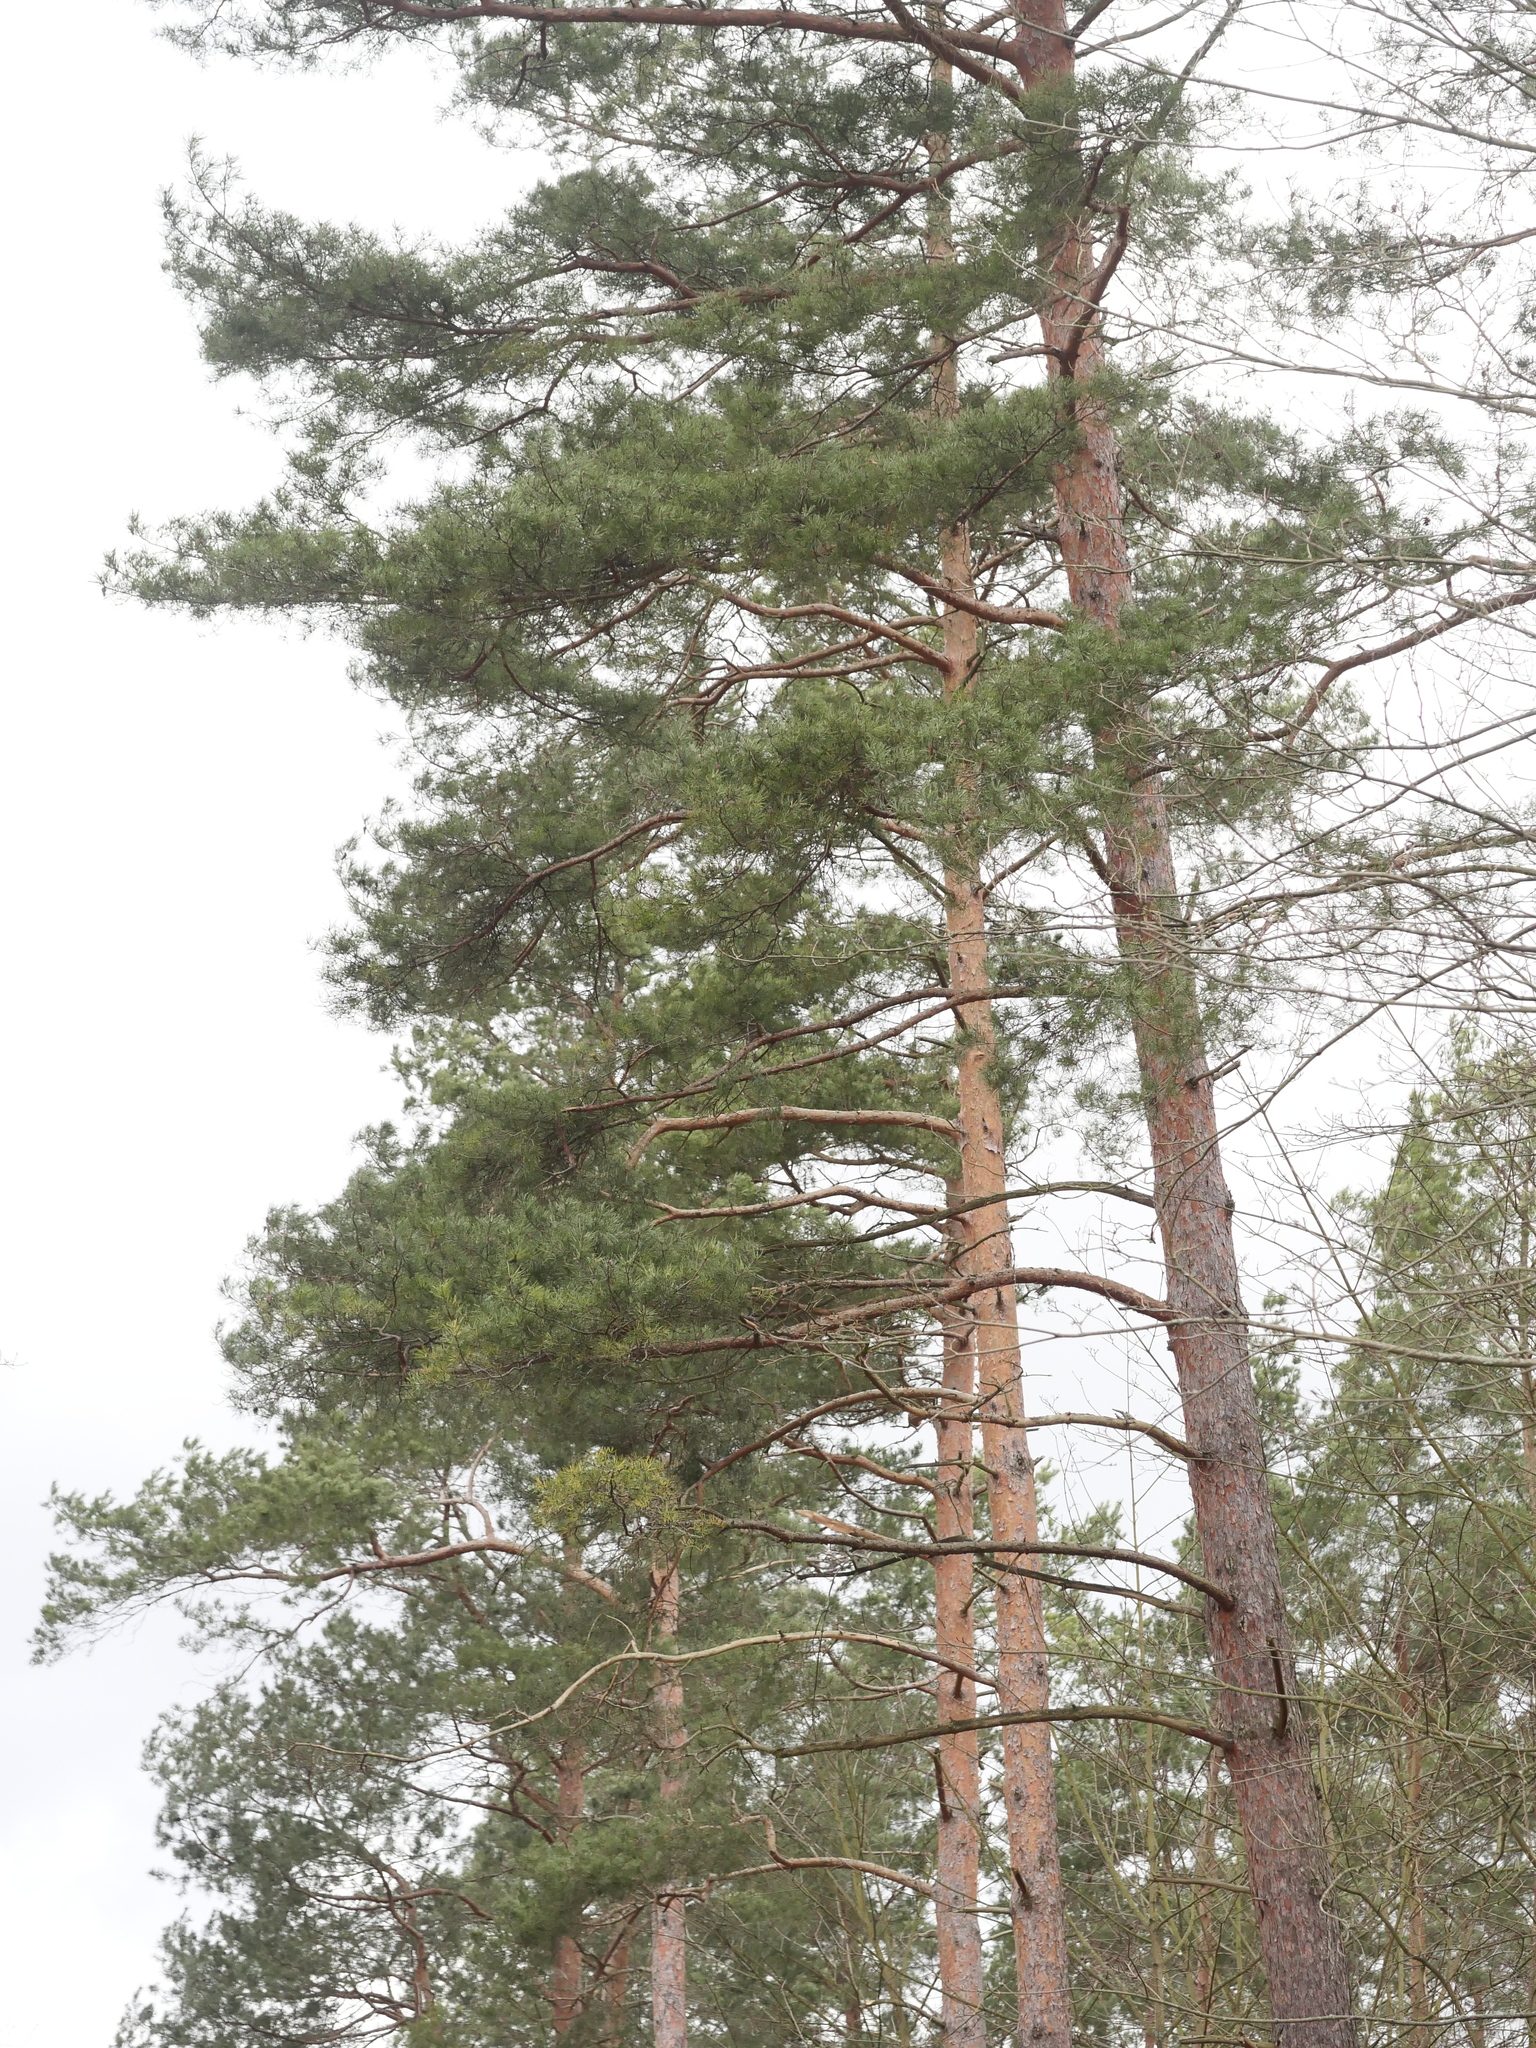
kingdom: Plantae
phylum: Tracheophyta
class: Pinopsida
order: Pinales
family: Pinaceae
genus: Pinus
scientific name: Pinus sylvestris
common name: Scots pine
